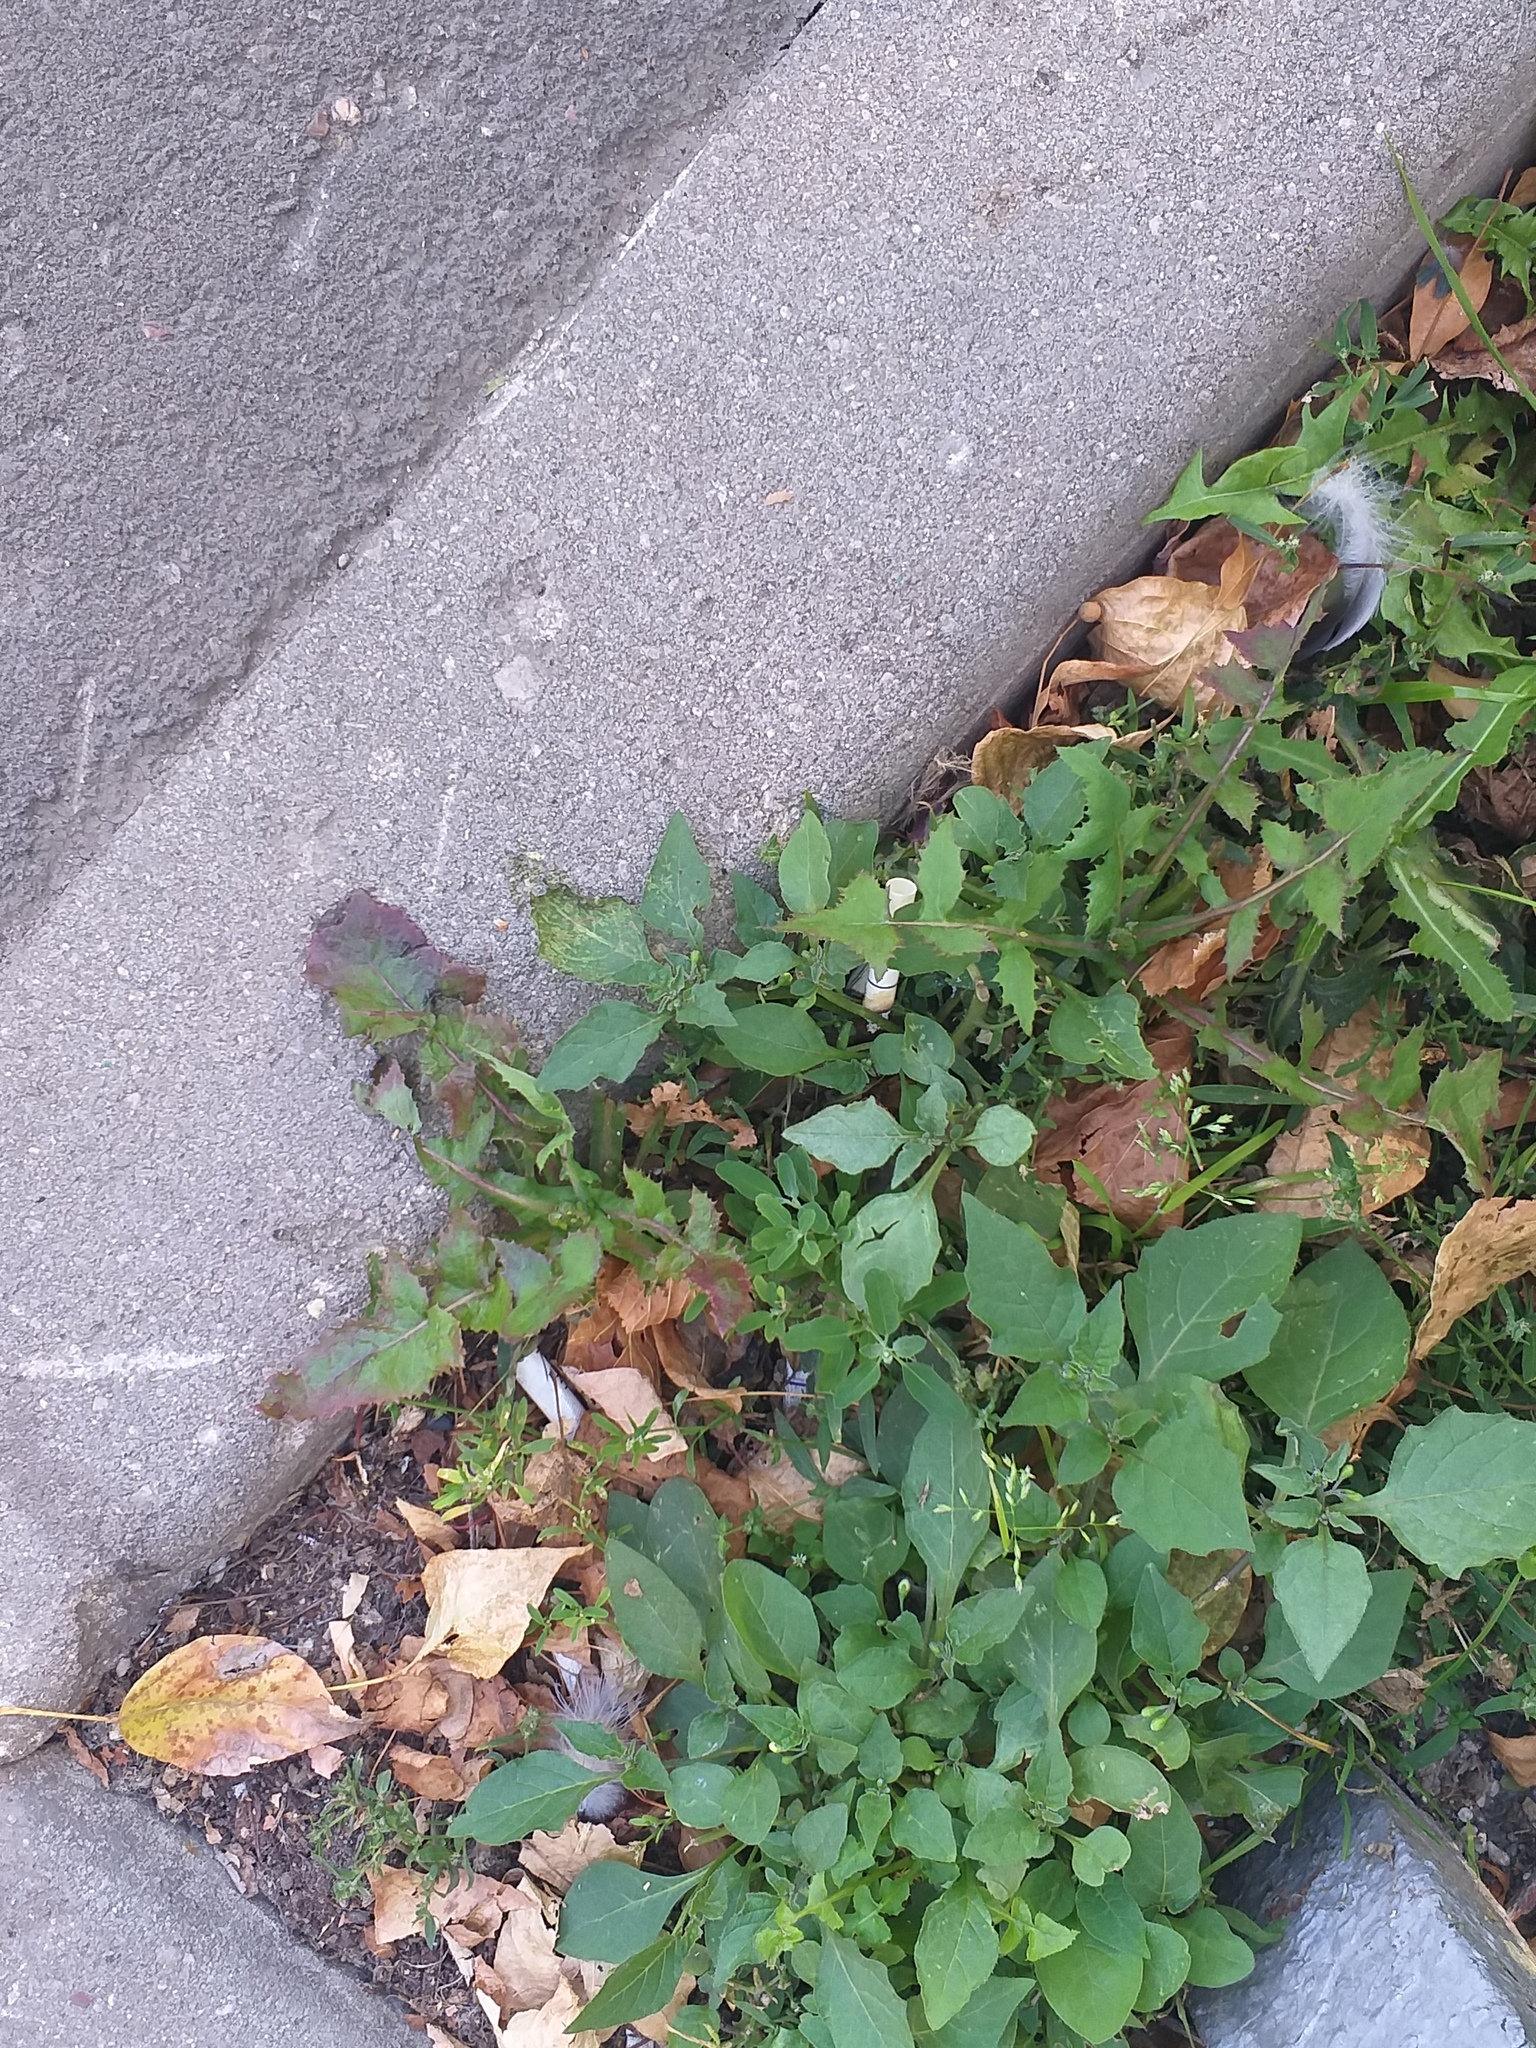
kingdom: Plantae
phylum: Tracheophyta
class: Magnoliopsida
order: Asterales
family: Asteraceae
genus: Sonchus
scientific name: Sonchus oleraceus
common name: Common sowthistle
